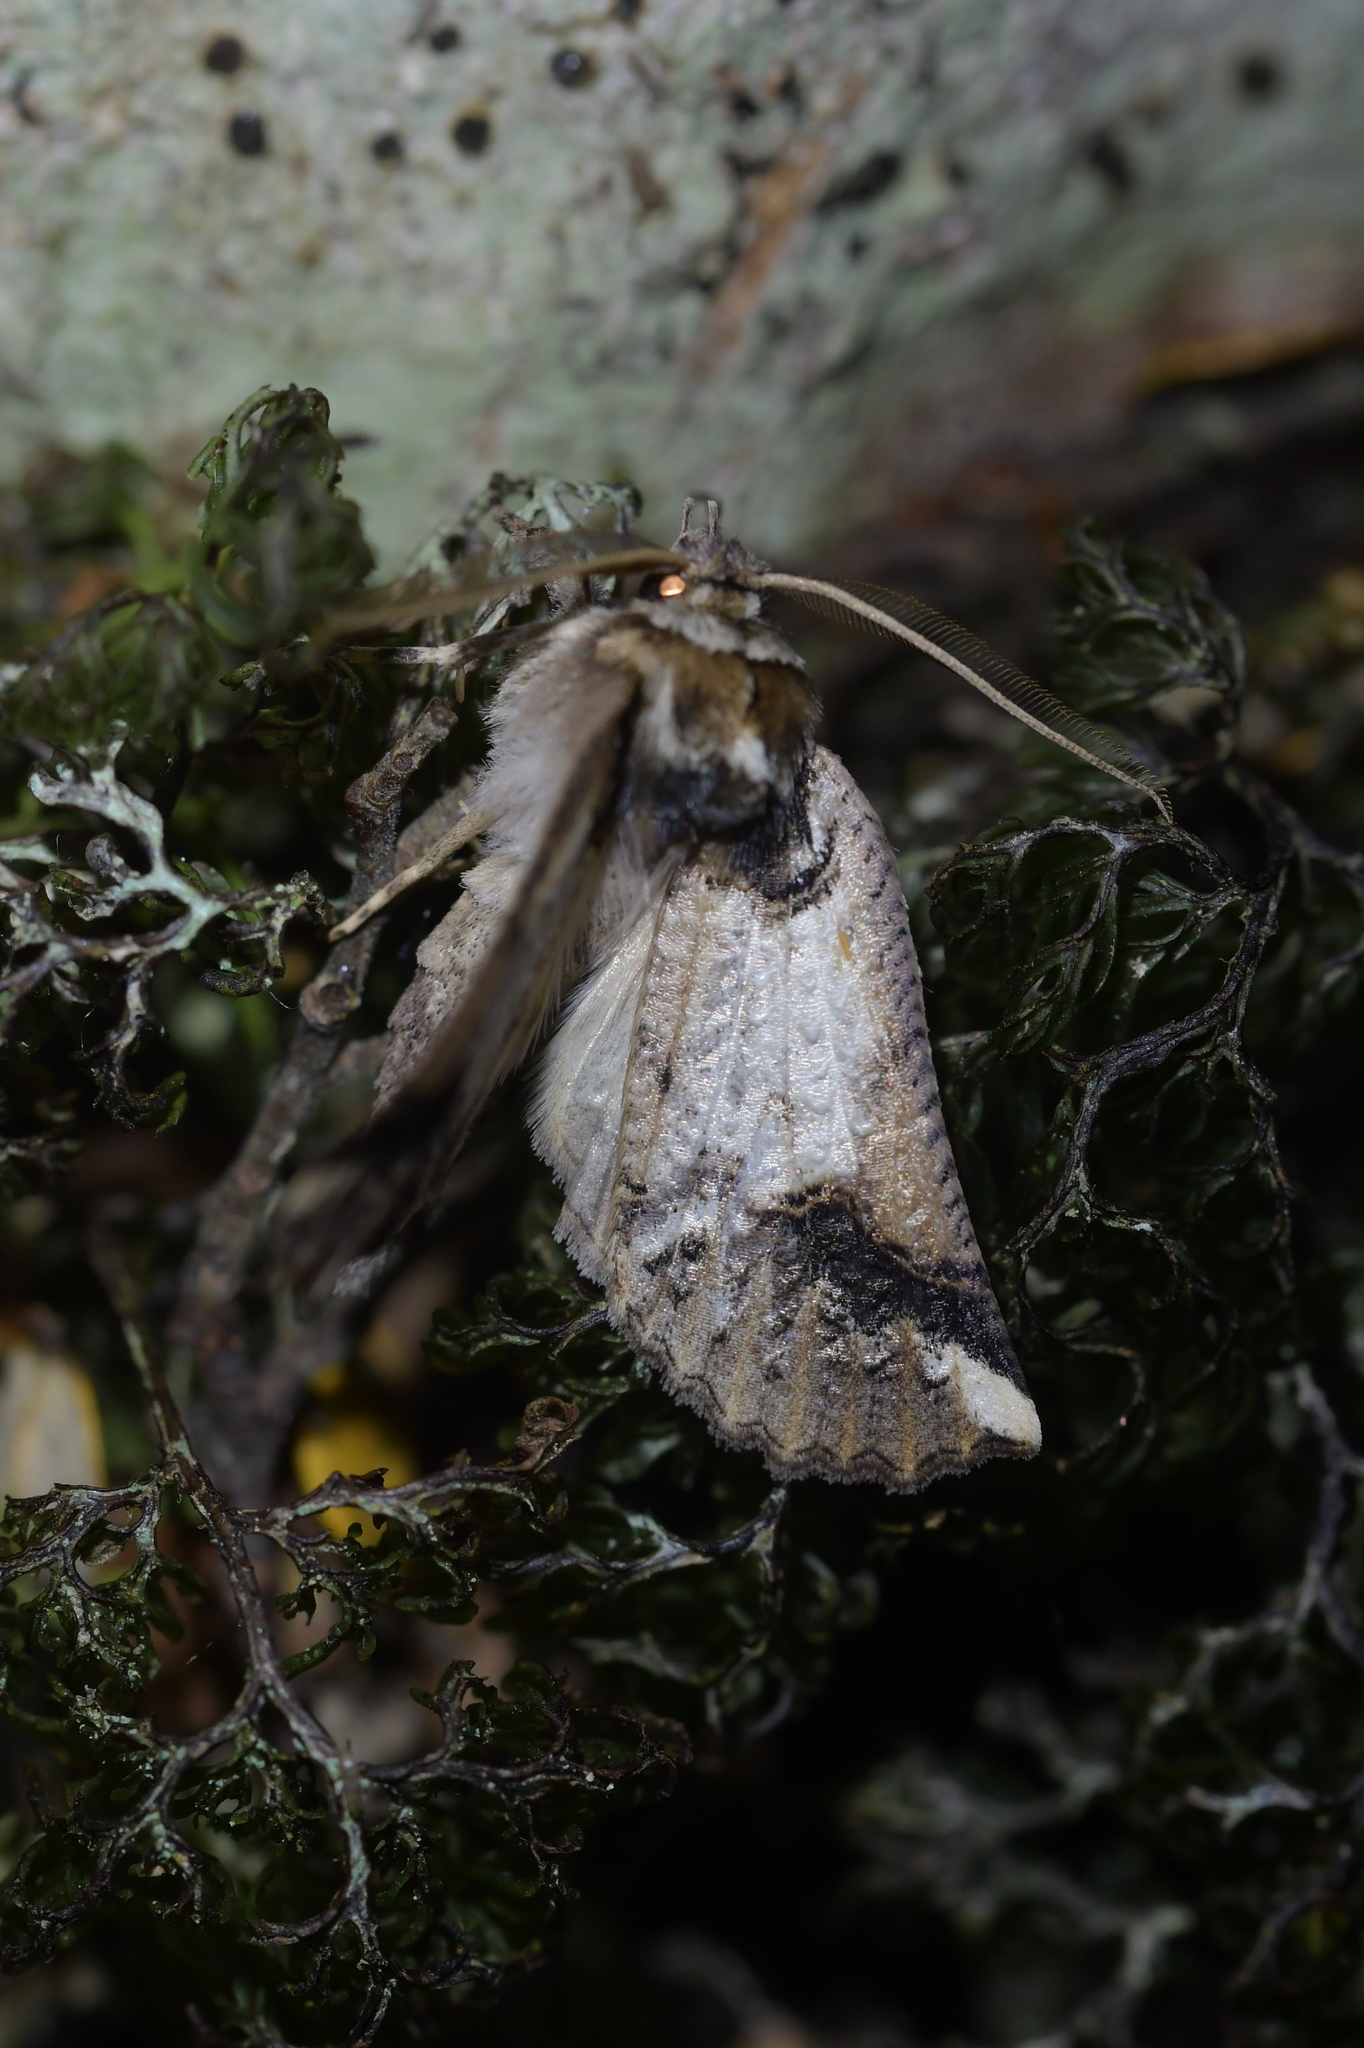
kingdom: Animalia
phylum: Arthropoda
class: Insecta
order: Lepidoptera
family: Geometridae
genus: Declana
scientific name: Declana
